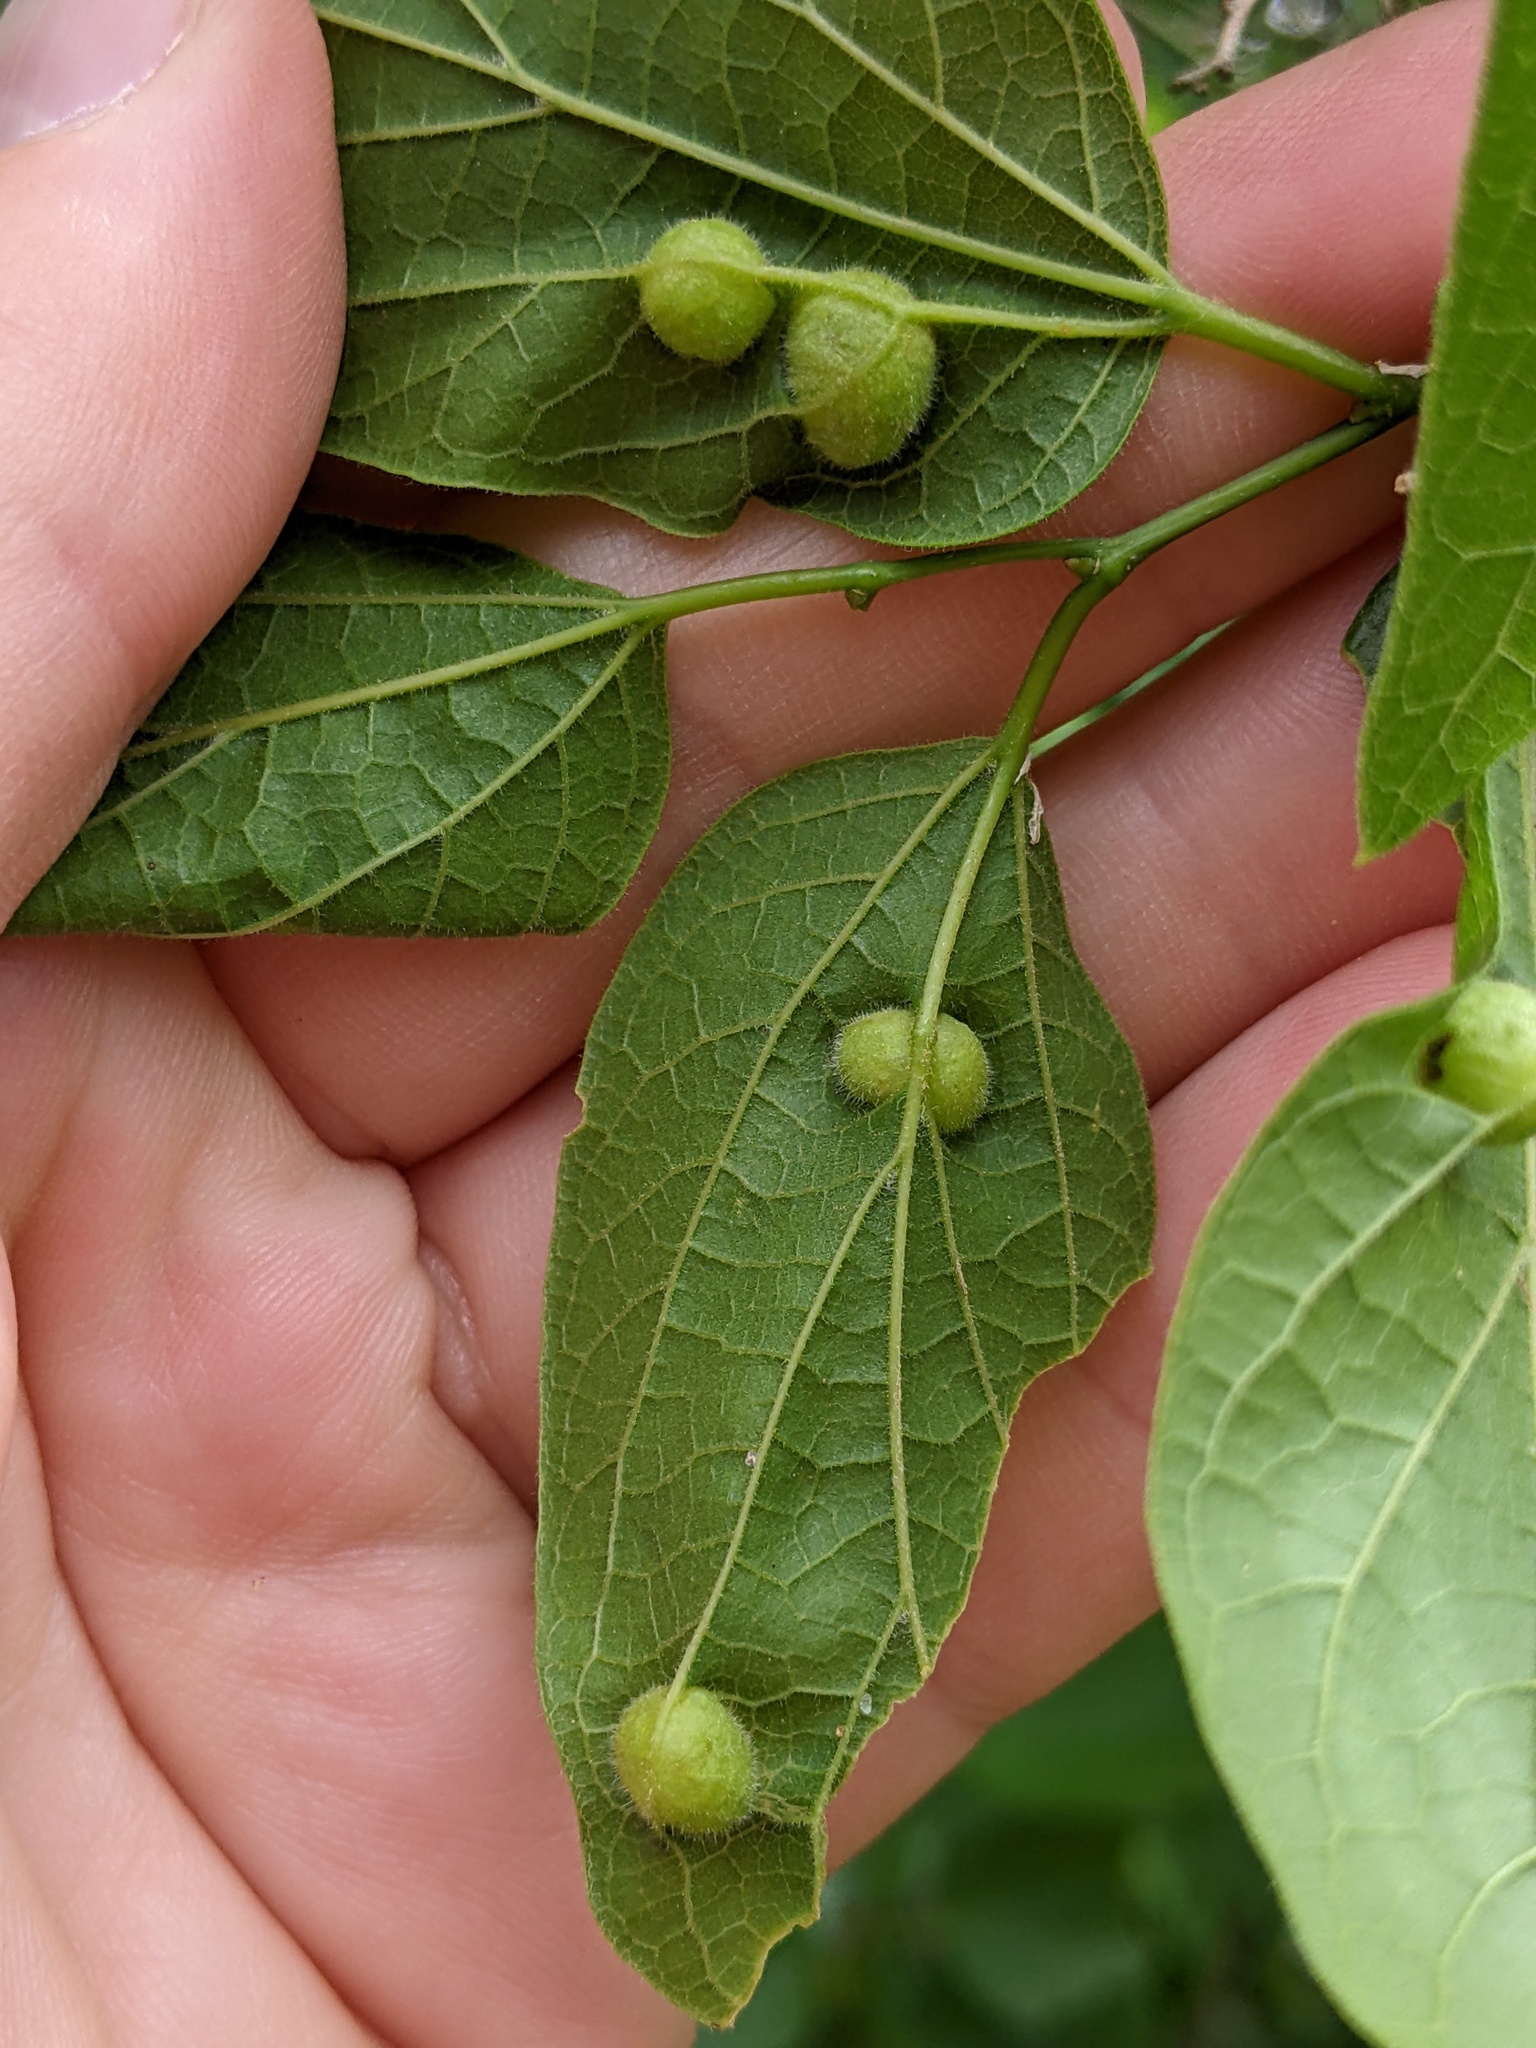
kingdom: Animalia
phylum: Arthropoda
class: Insecta
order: Diptera
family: Cecidomyiidae
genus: Peracecis
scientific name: Peracecis fugitiva
